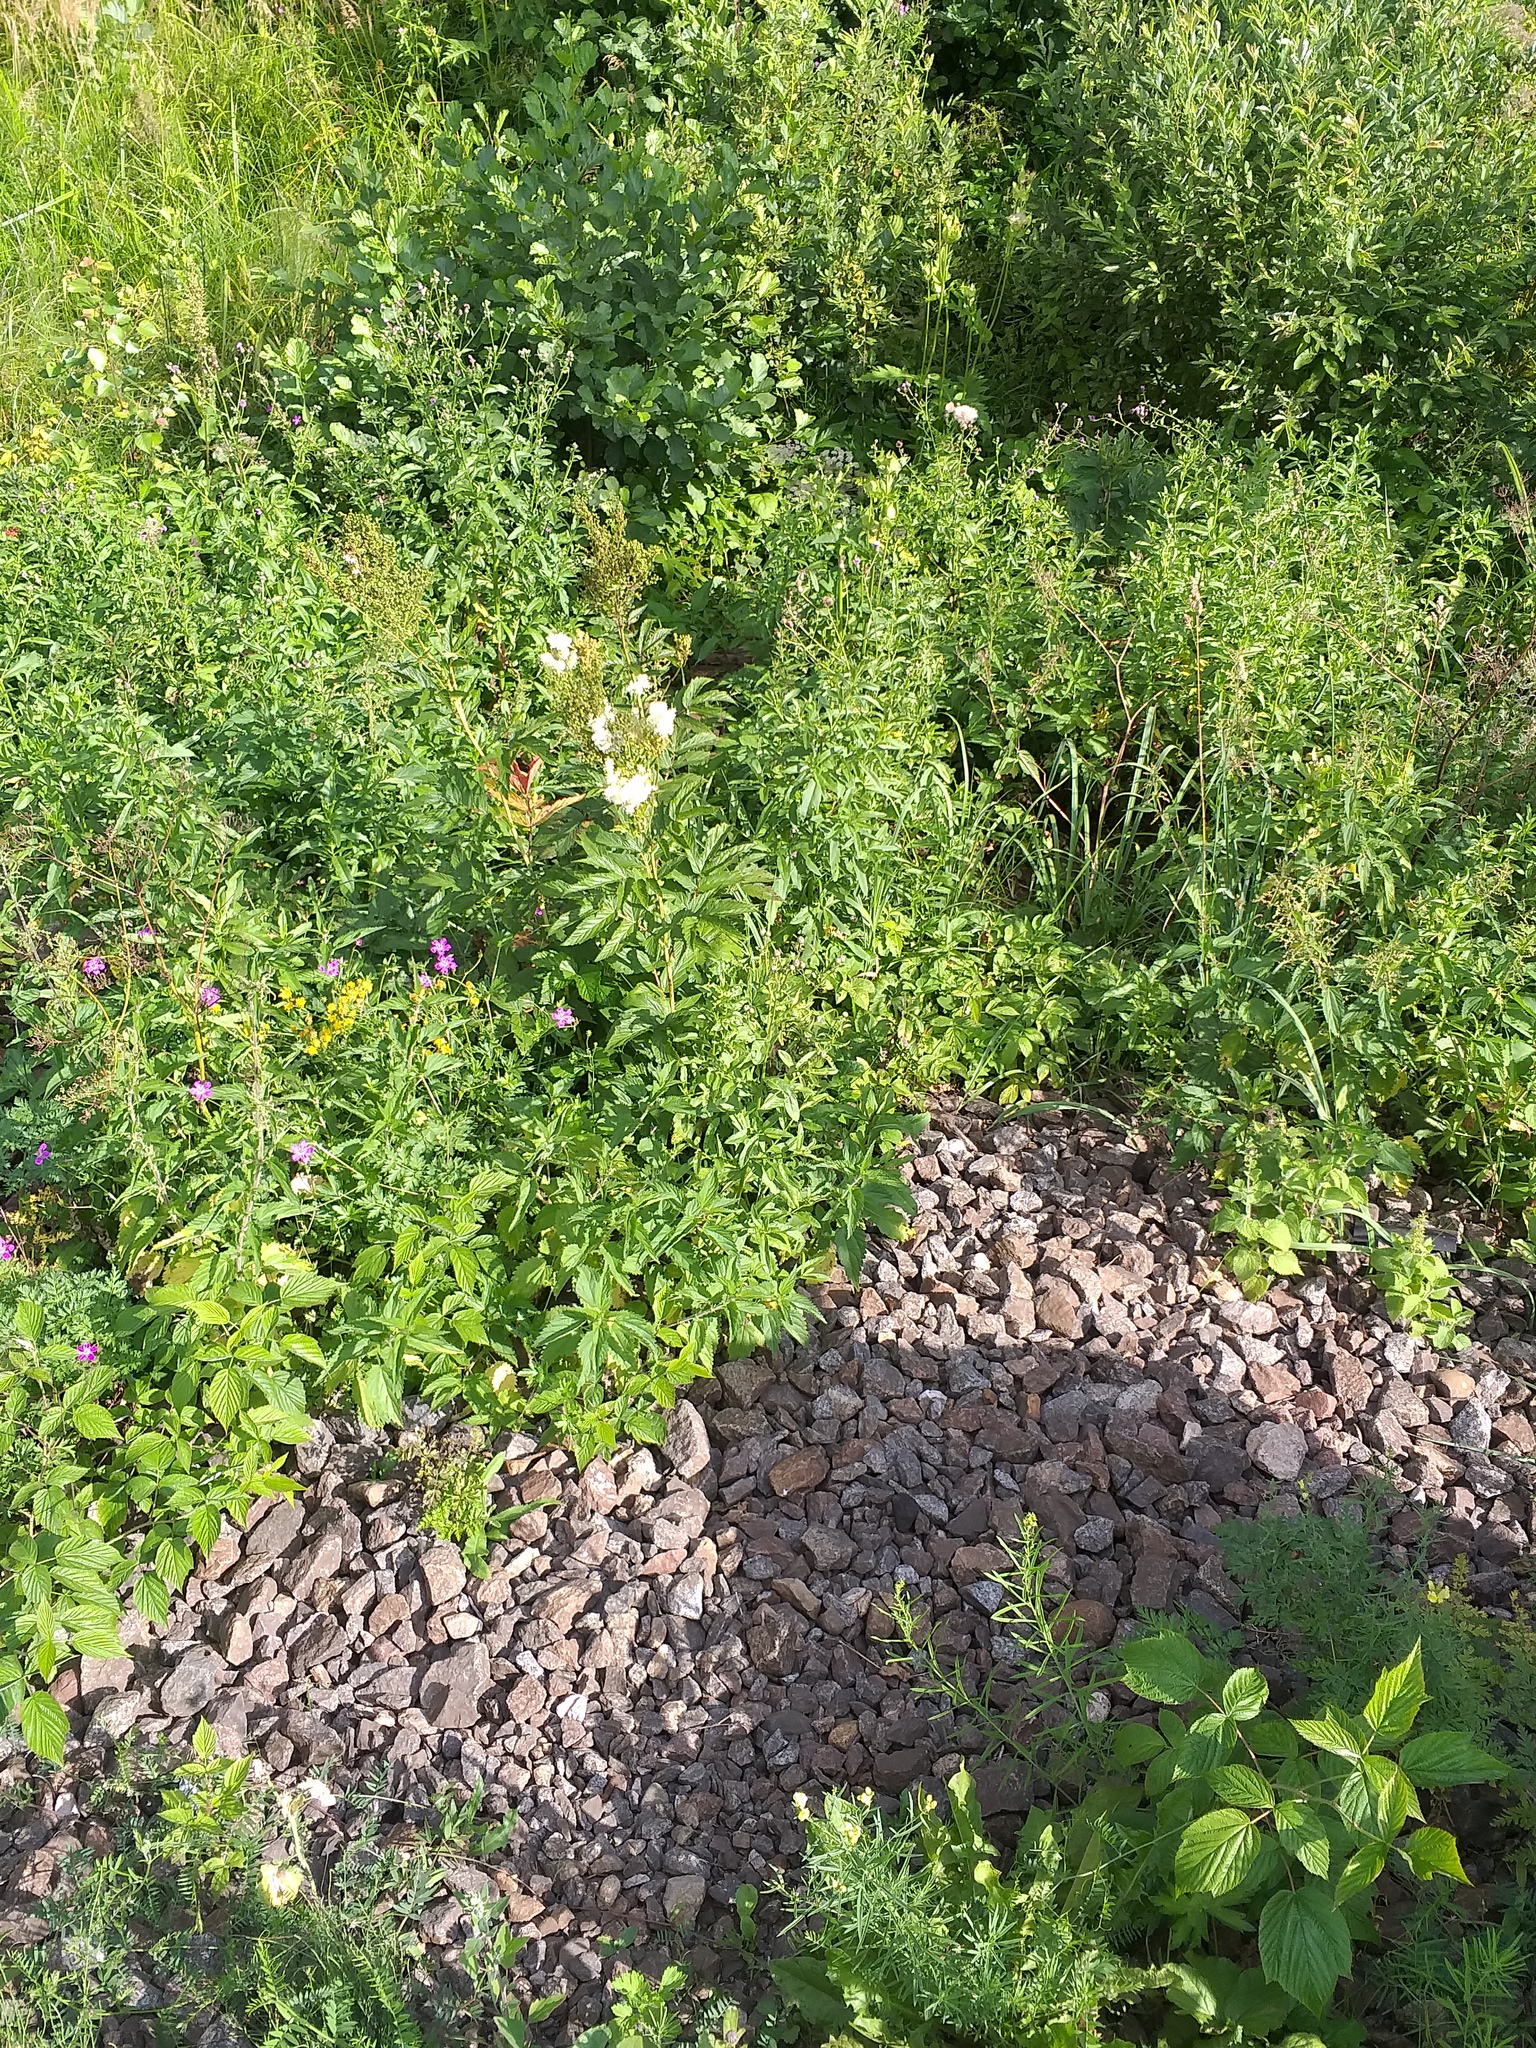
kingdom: Plantae
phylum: Tracheophyta
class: Magnoliopsida
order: Rosales
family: Rosaceae
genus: Filipendula
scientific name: Filipendula ulmaria
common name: Meadowsweet
